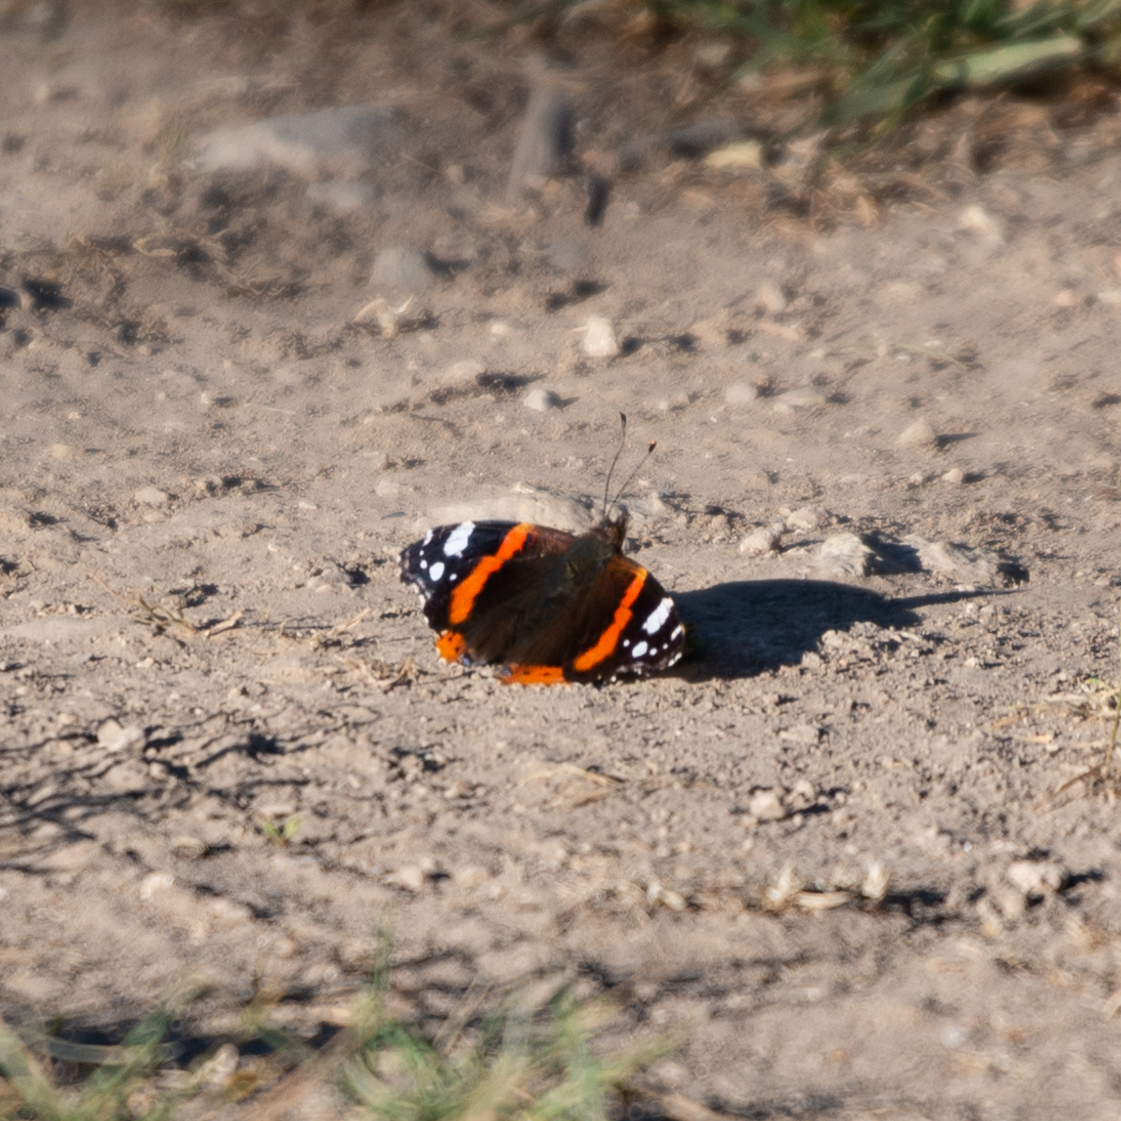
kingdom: Animalia
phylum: Arthropoda
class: Insecta
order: Lepidoptera
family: Nymphalidae
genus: Vanessa
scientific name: Vanessa atalanta
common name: Red admiral
